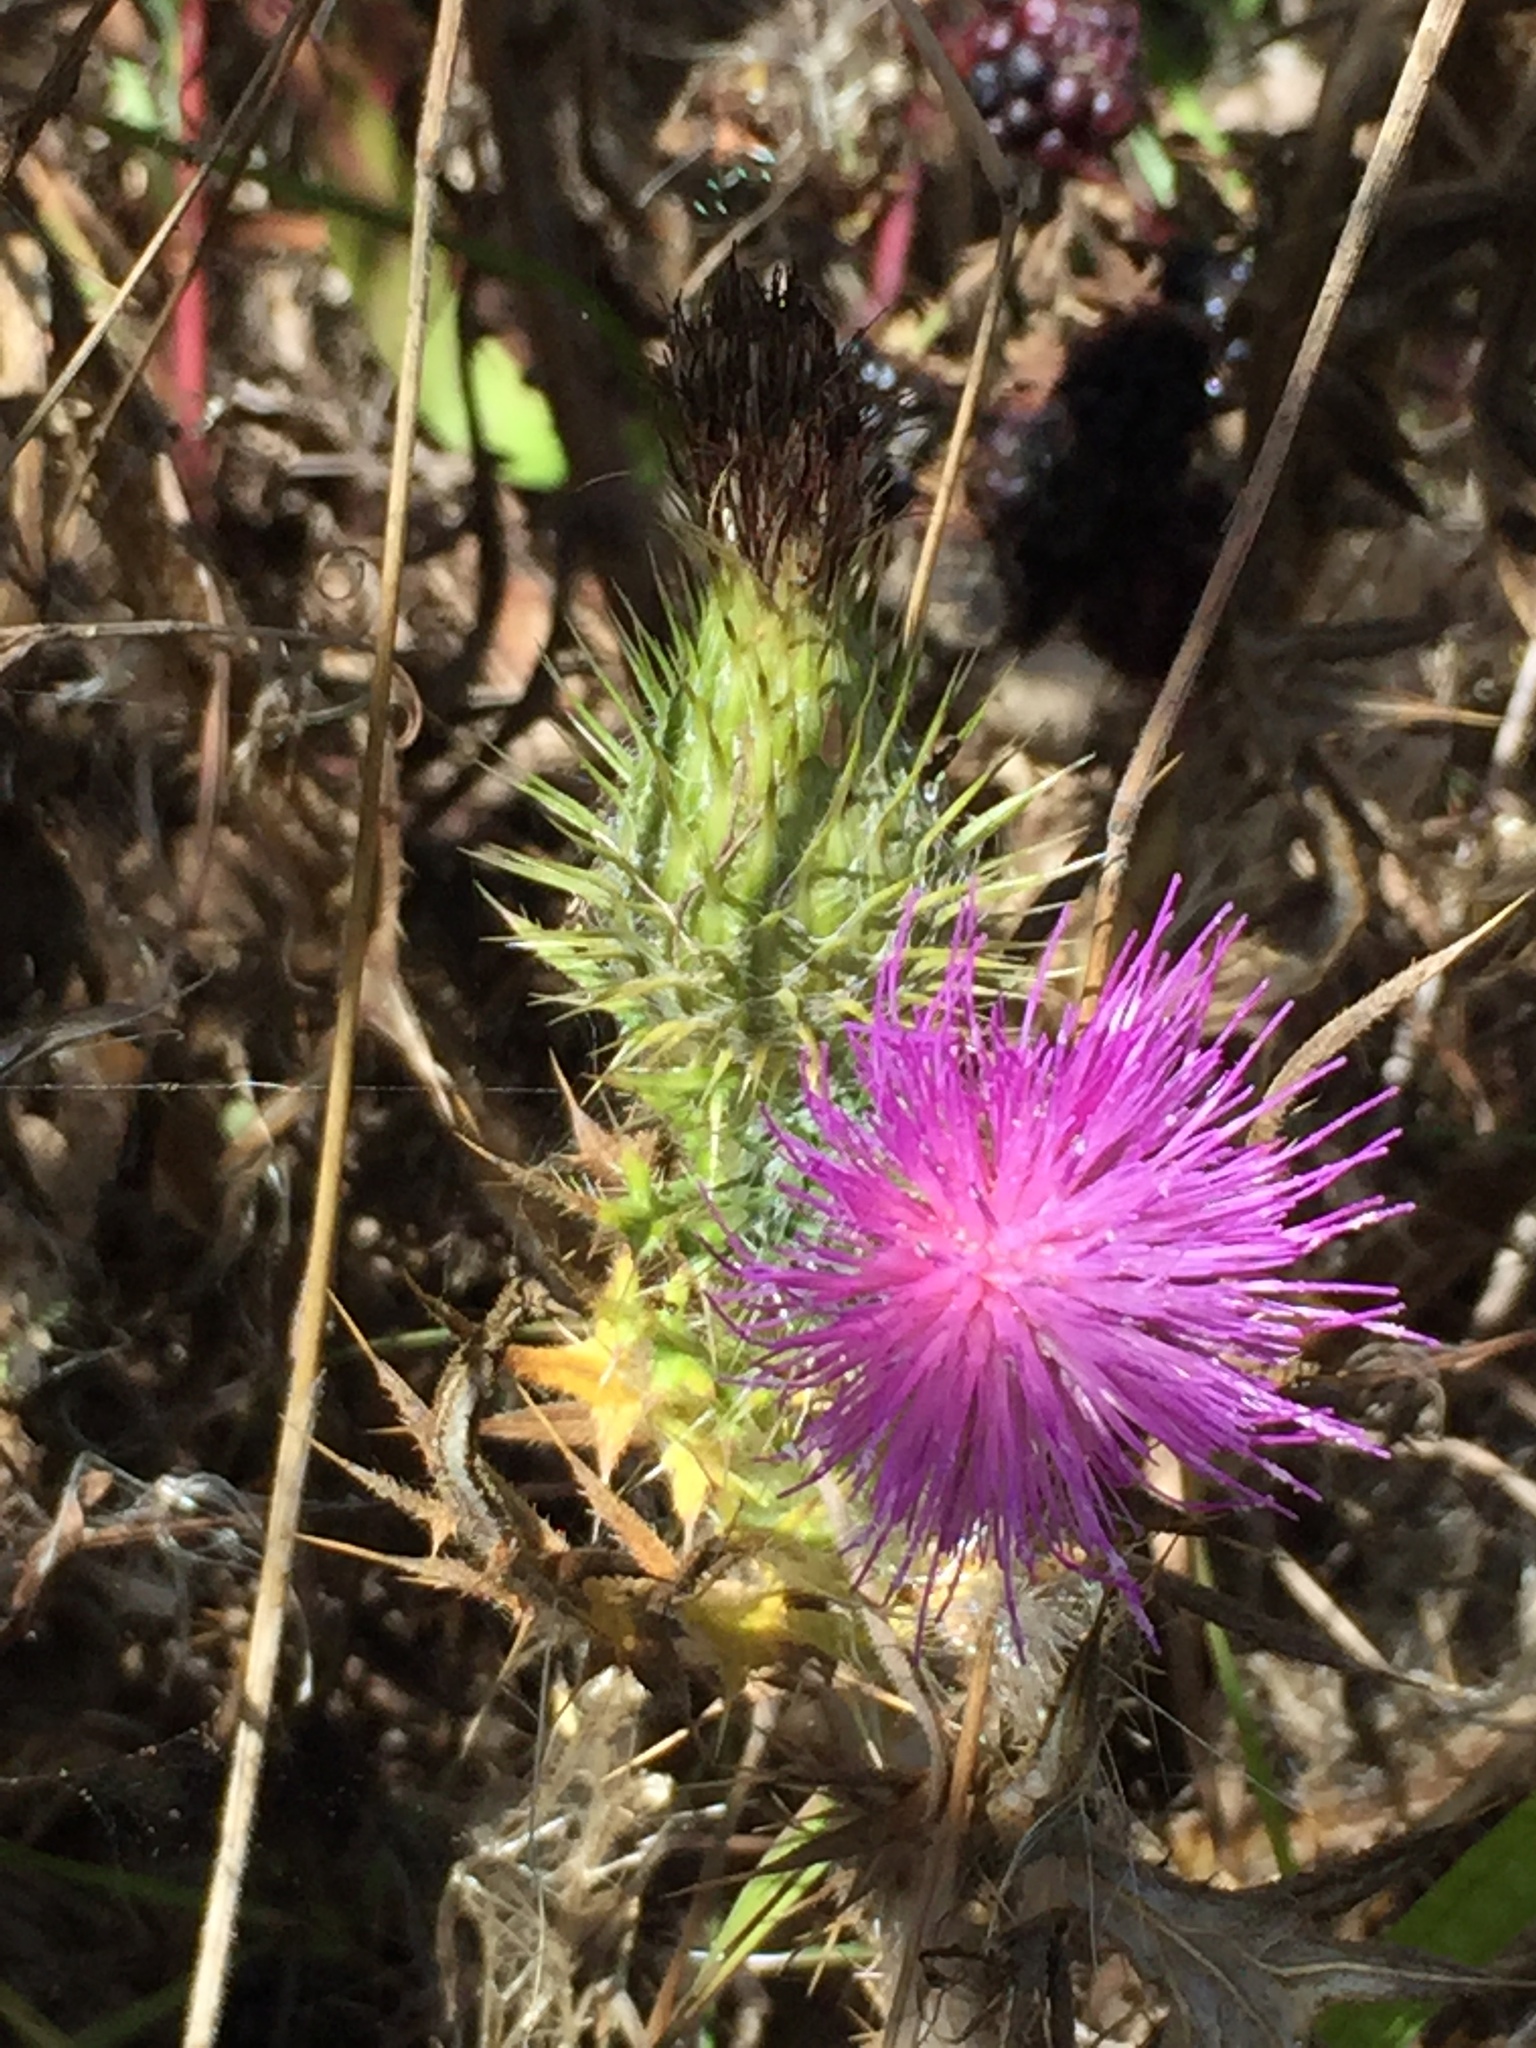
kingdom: Plantae
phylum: Tracheophyta
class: Magnoliopsida
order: Asterales
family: Asteraceae
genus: Cirsium
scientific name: Cirsium vulgare
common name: Bull thistle
